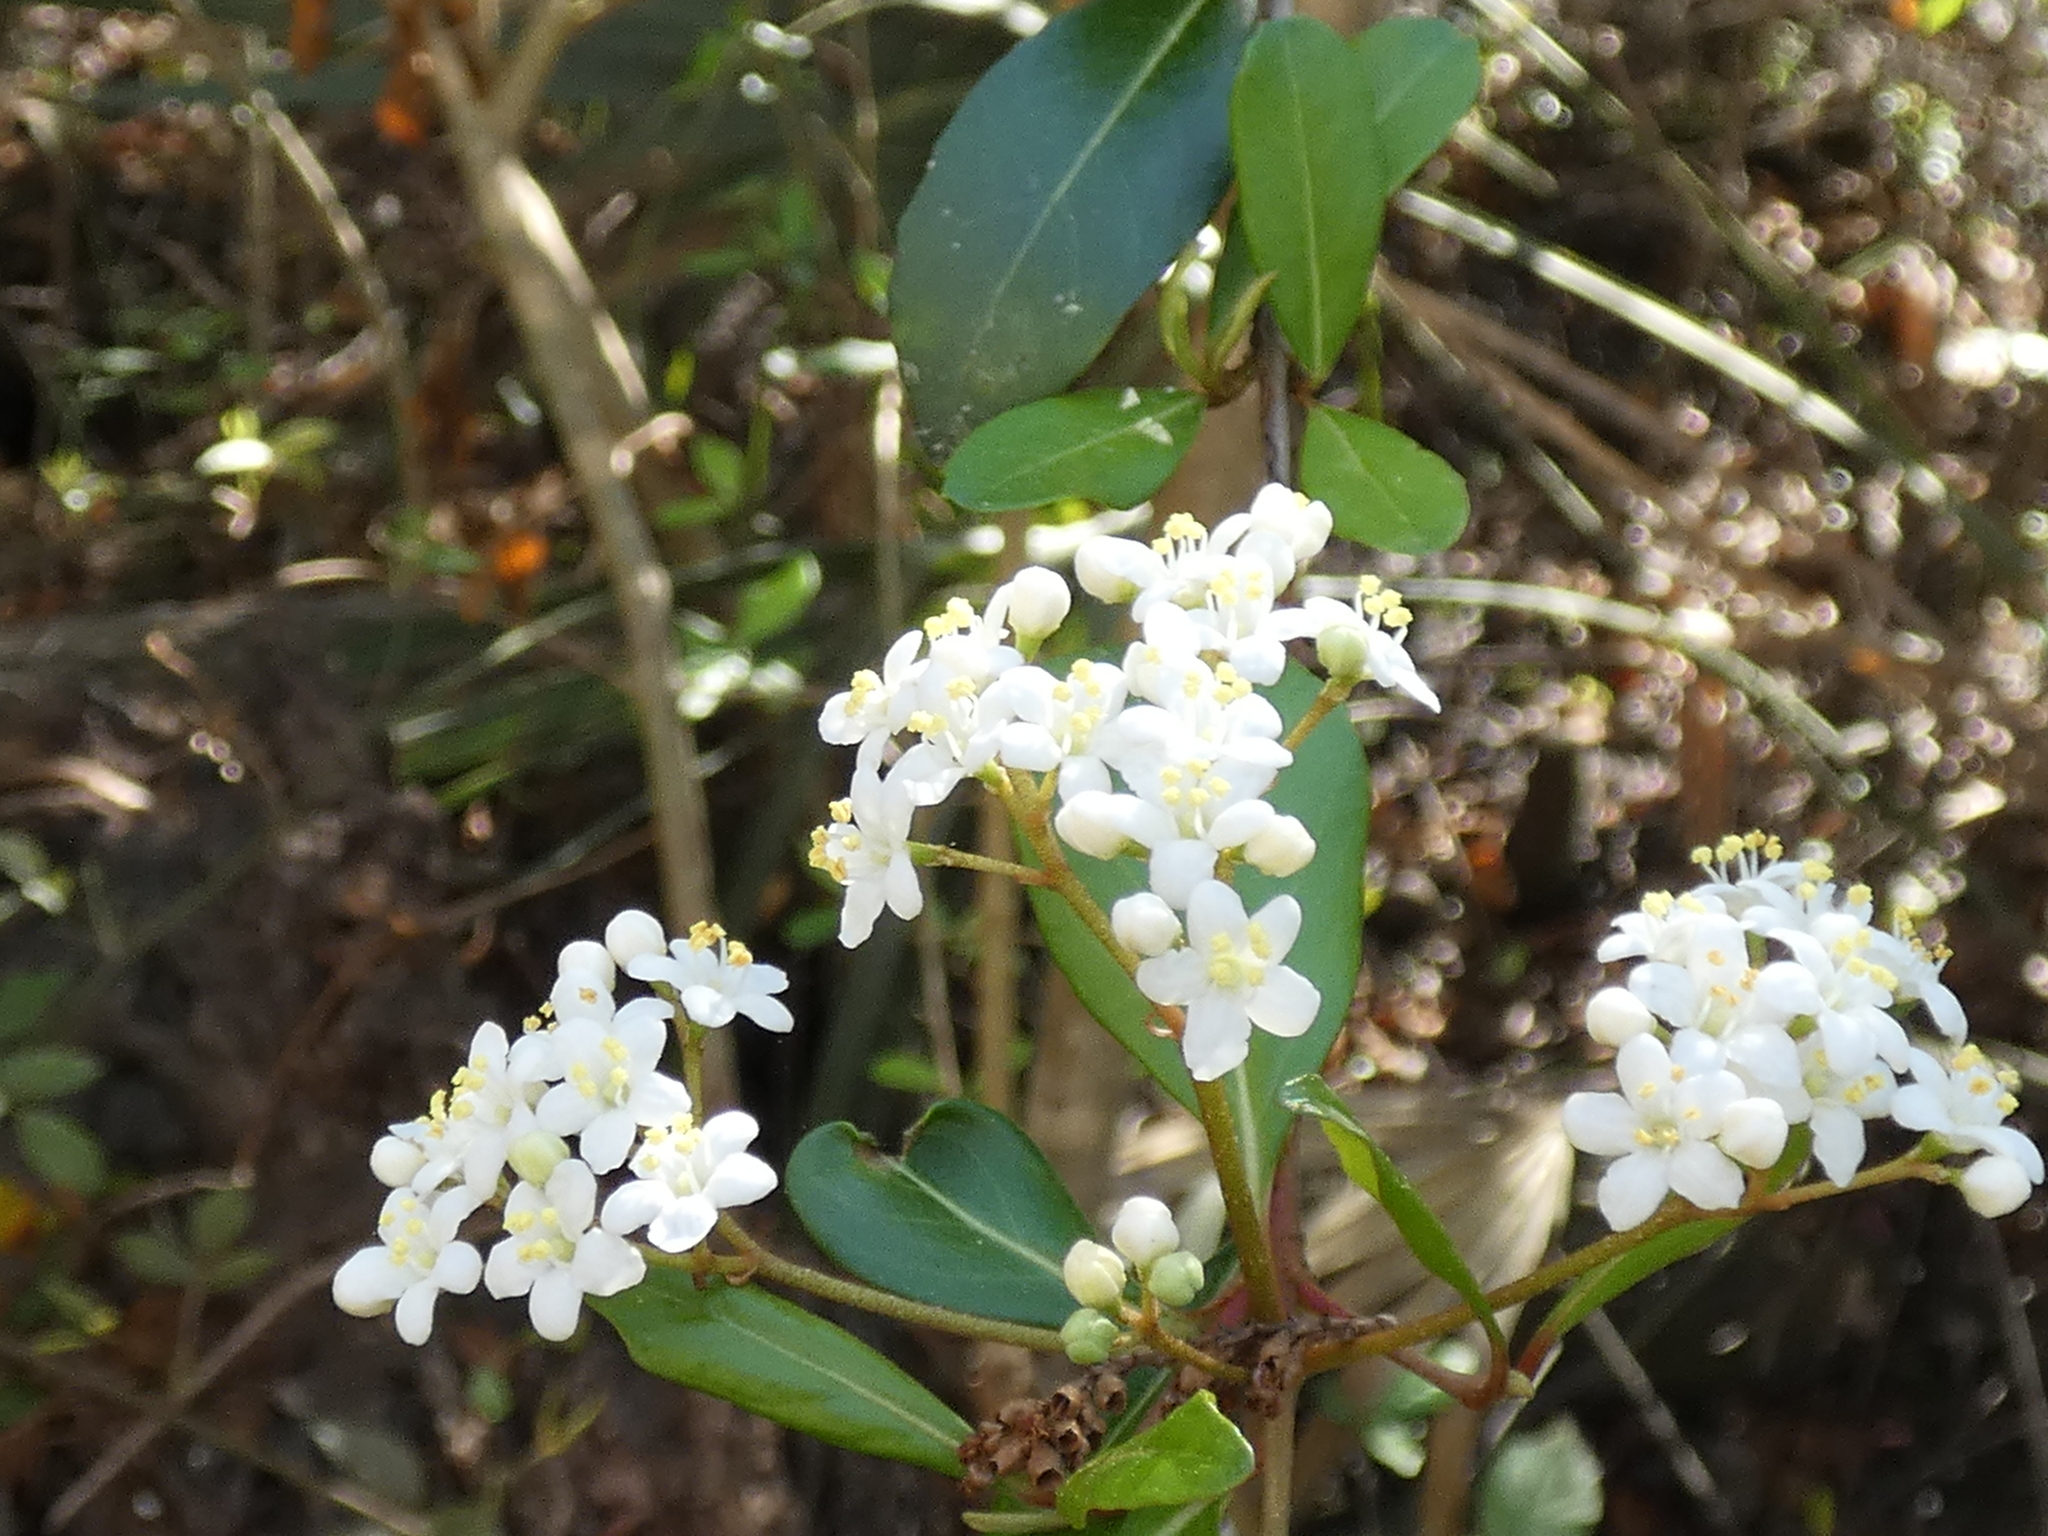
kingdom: Plantae
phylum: Tracheophyta
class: Magnoliopsida
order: Dipsacales
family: Viburnaceae
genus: Viburnum
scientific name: Viburnum obovatum
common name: Walter's viburnum
